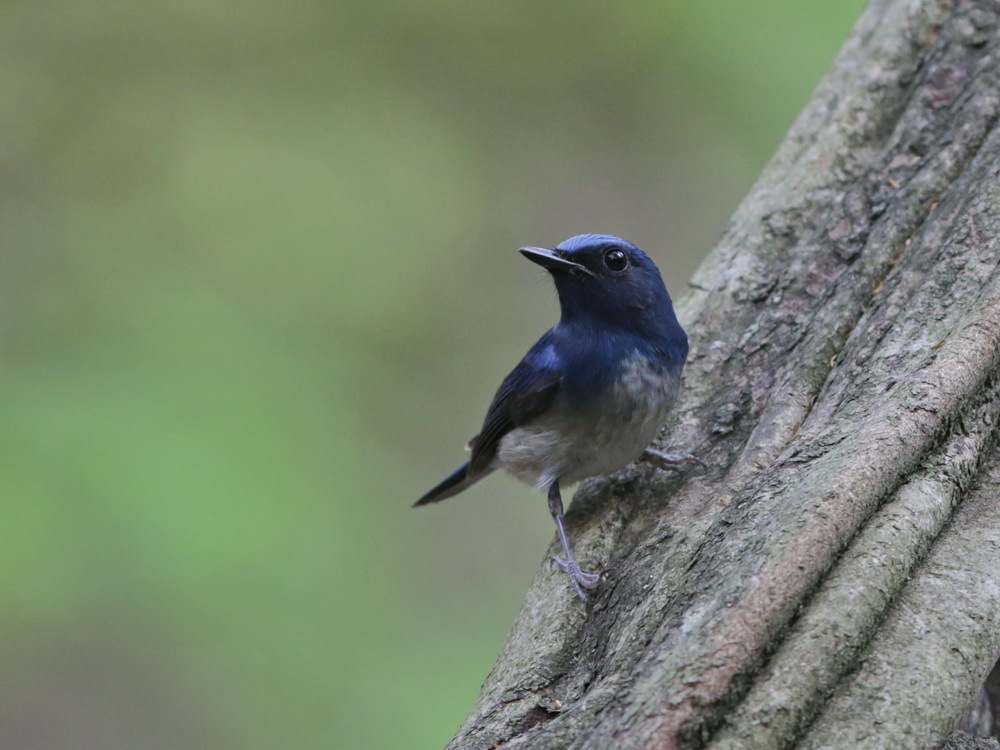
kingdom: Animalia
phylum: Chordata
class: Aves
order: Passeriformes
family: Muscicapidae
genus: Cyornis
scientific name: Cyornis hainanus
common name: Hainan blue flycatcher
